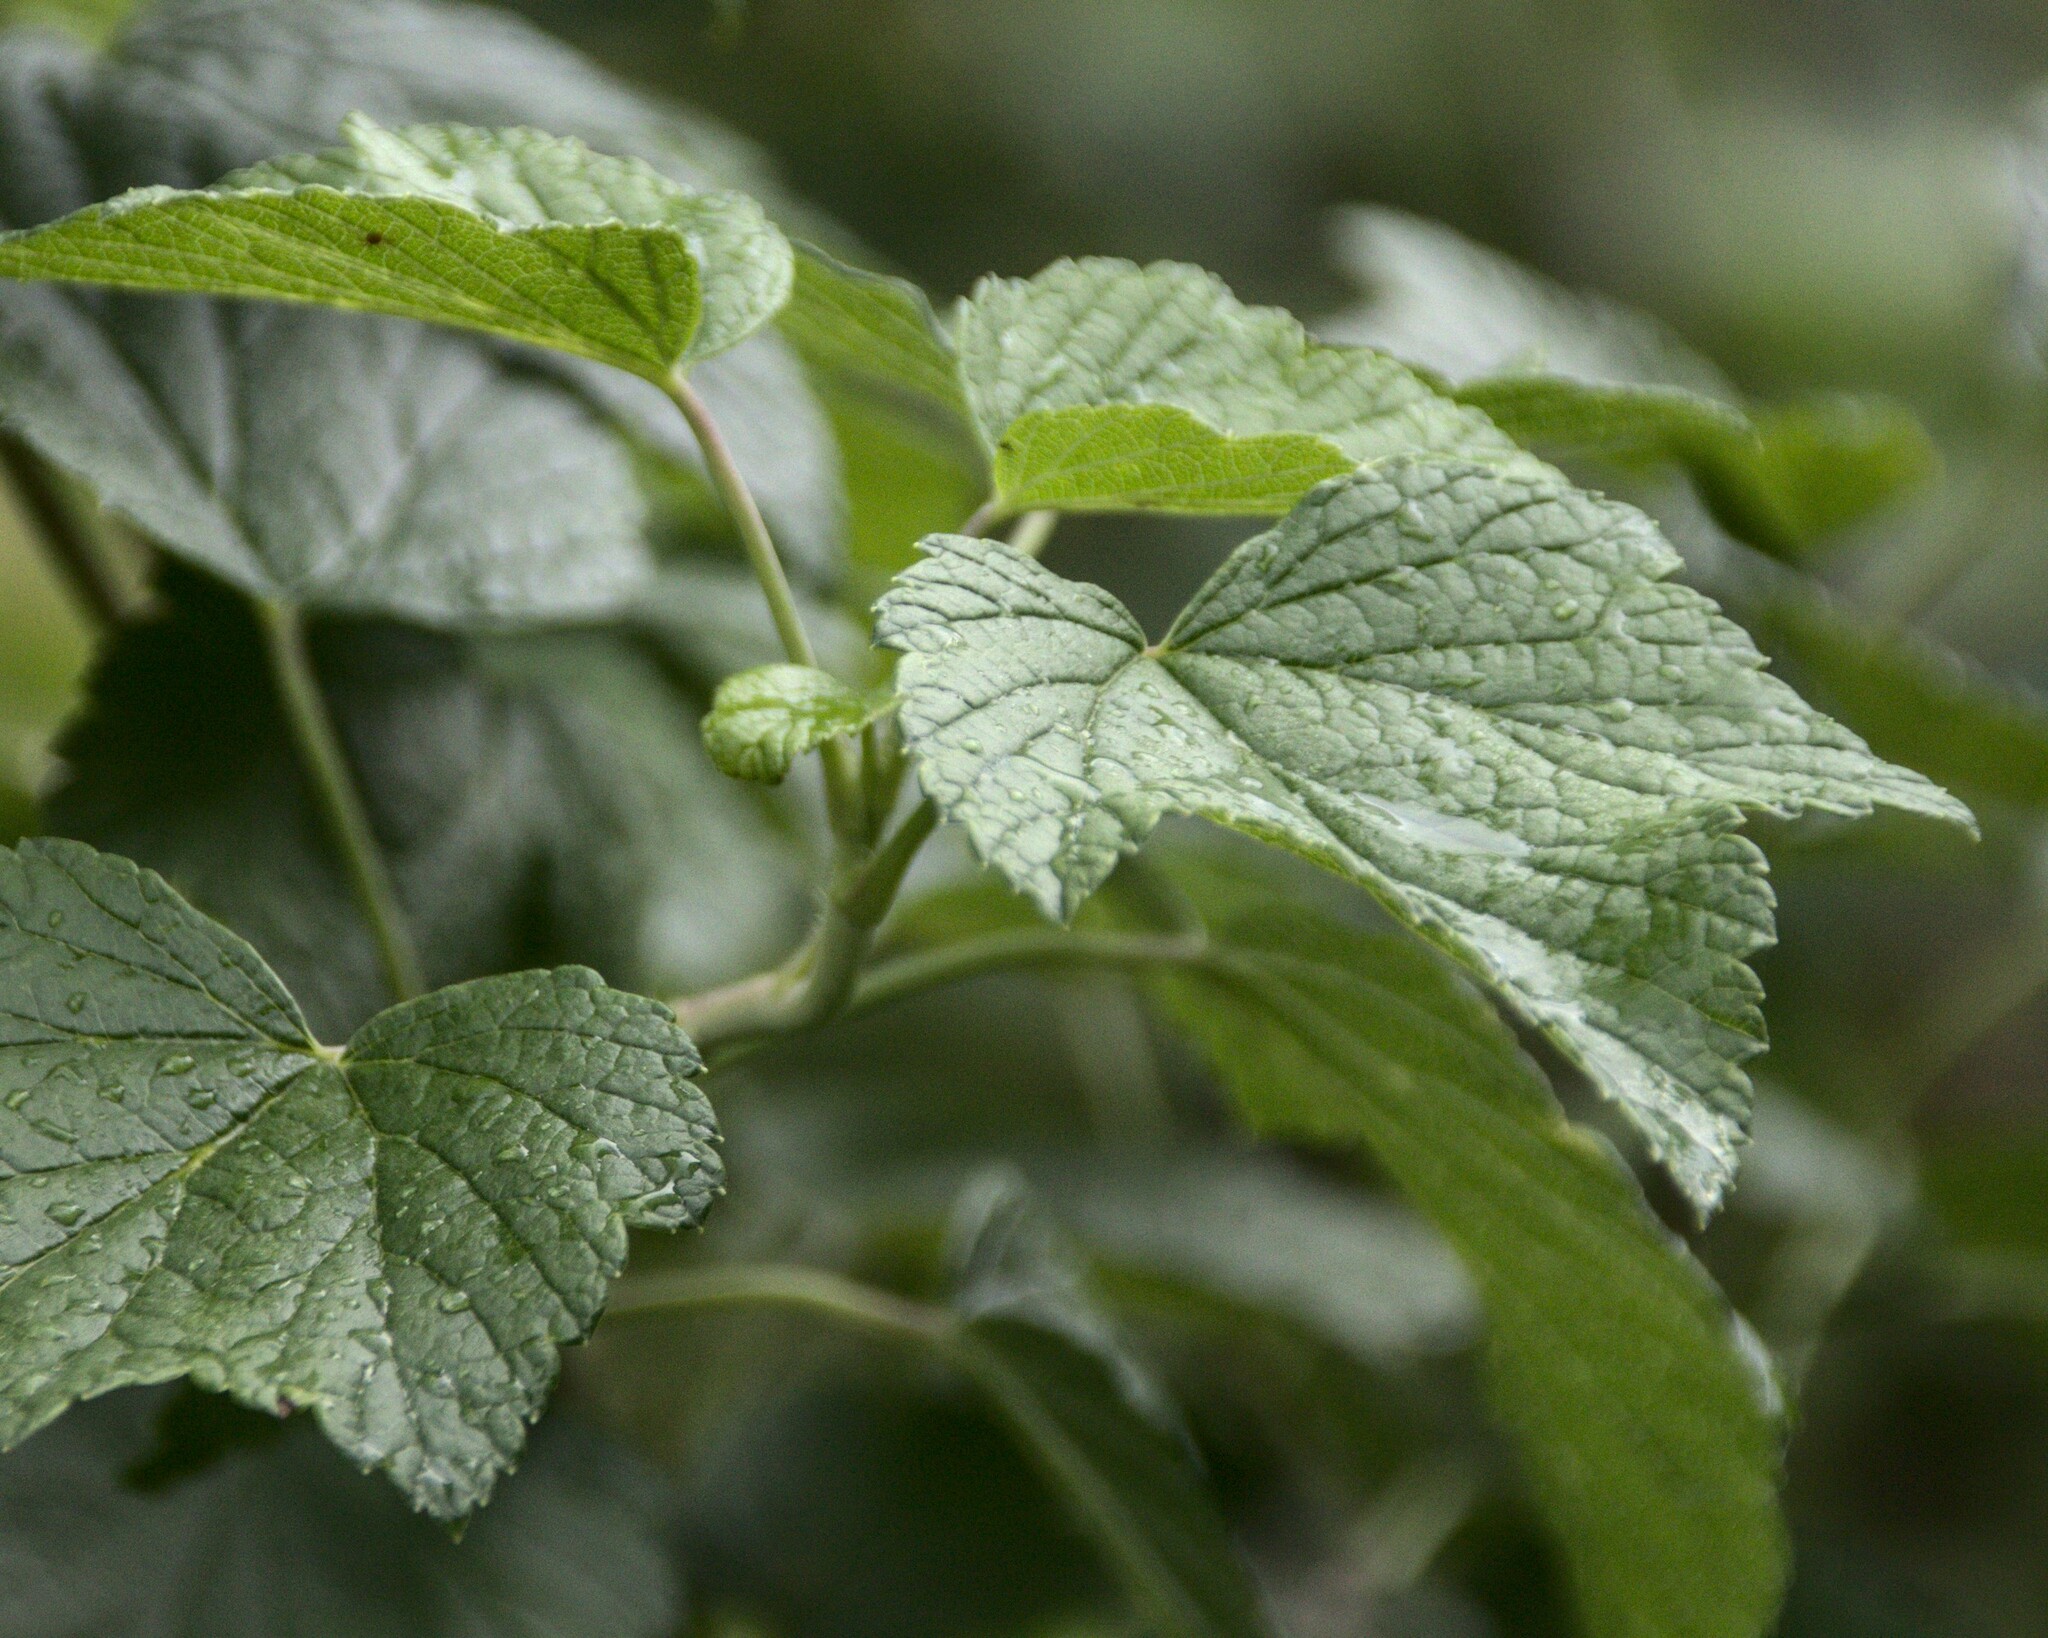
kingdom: Plantae
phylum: Tracheophyta
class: Magnoliopsida
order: Saxifragales
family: Grossulariaceae
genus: Ribes
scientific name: Ribes nigrum
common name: Black currant
